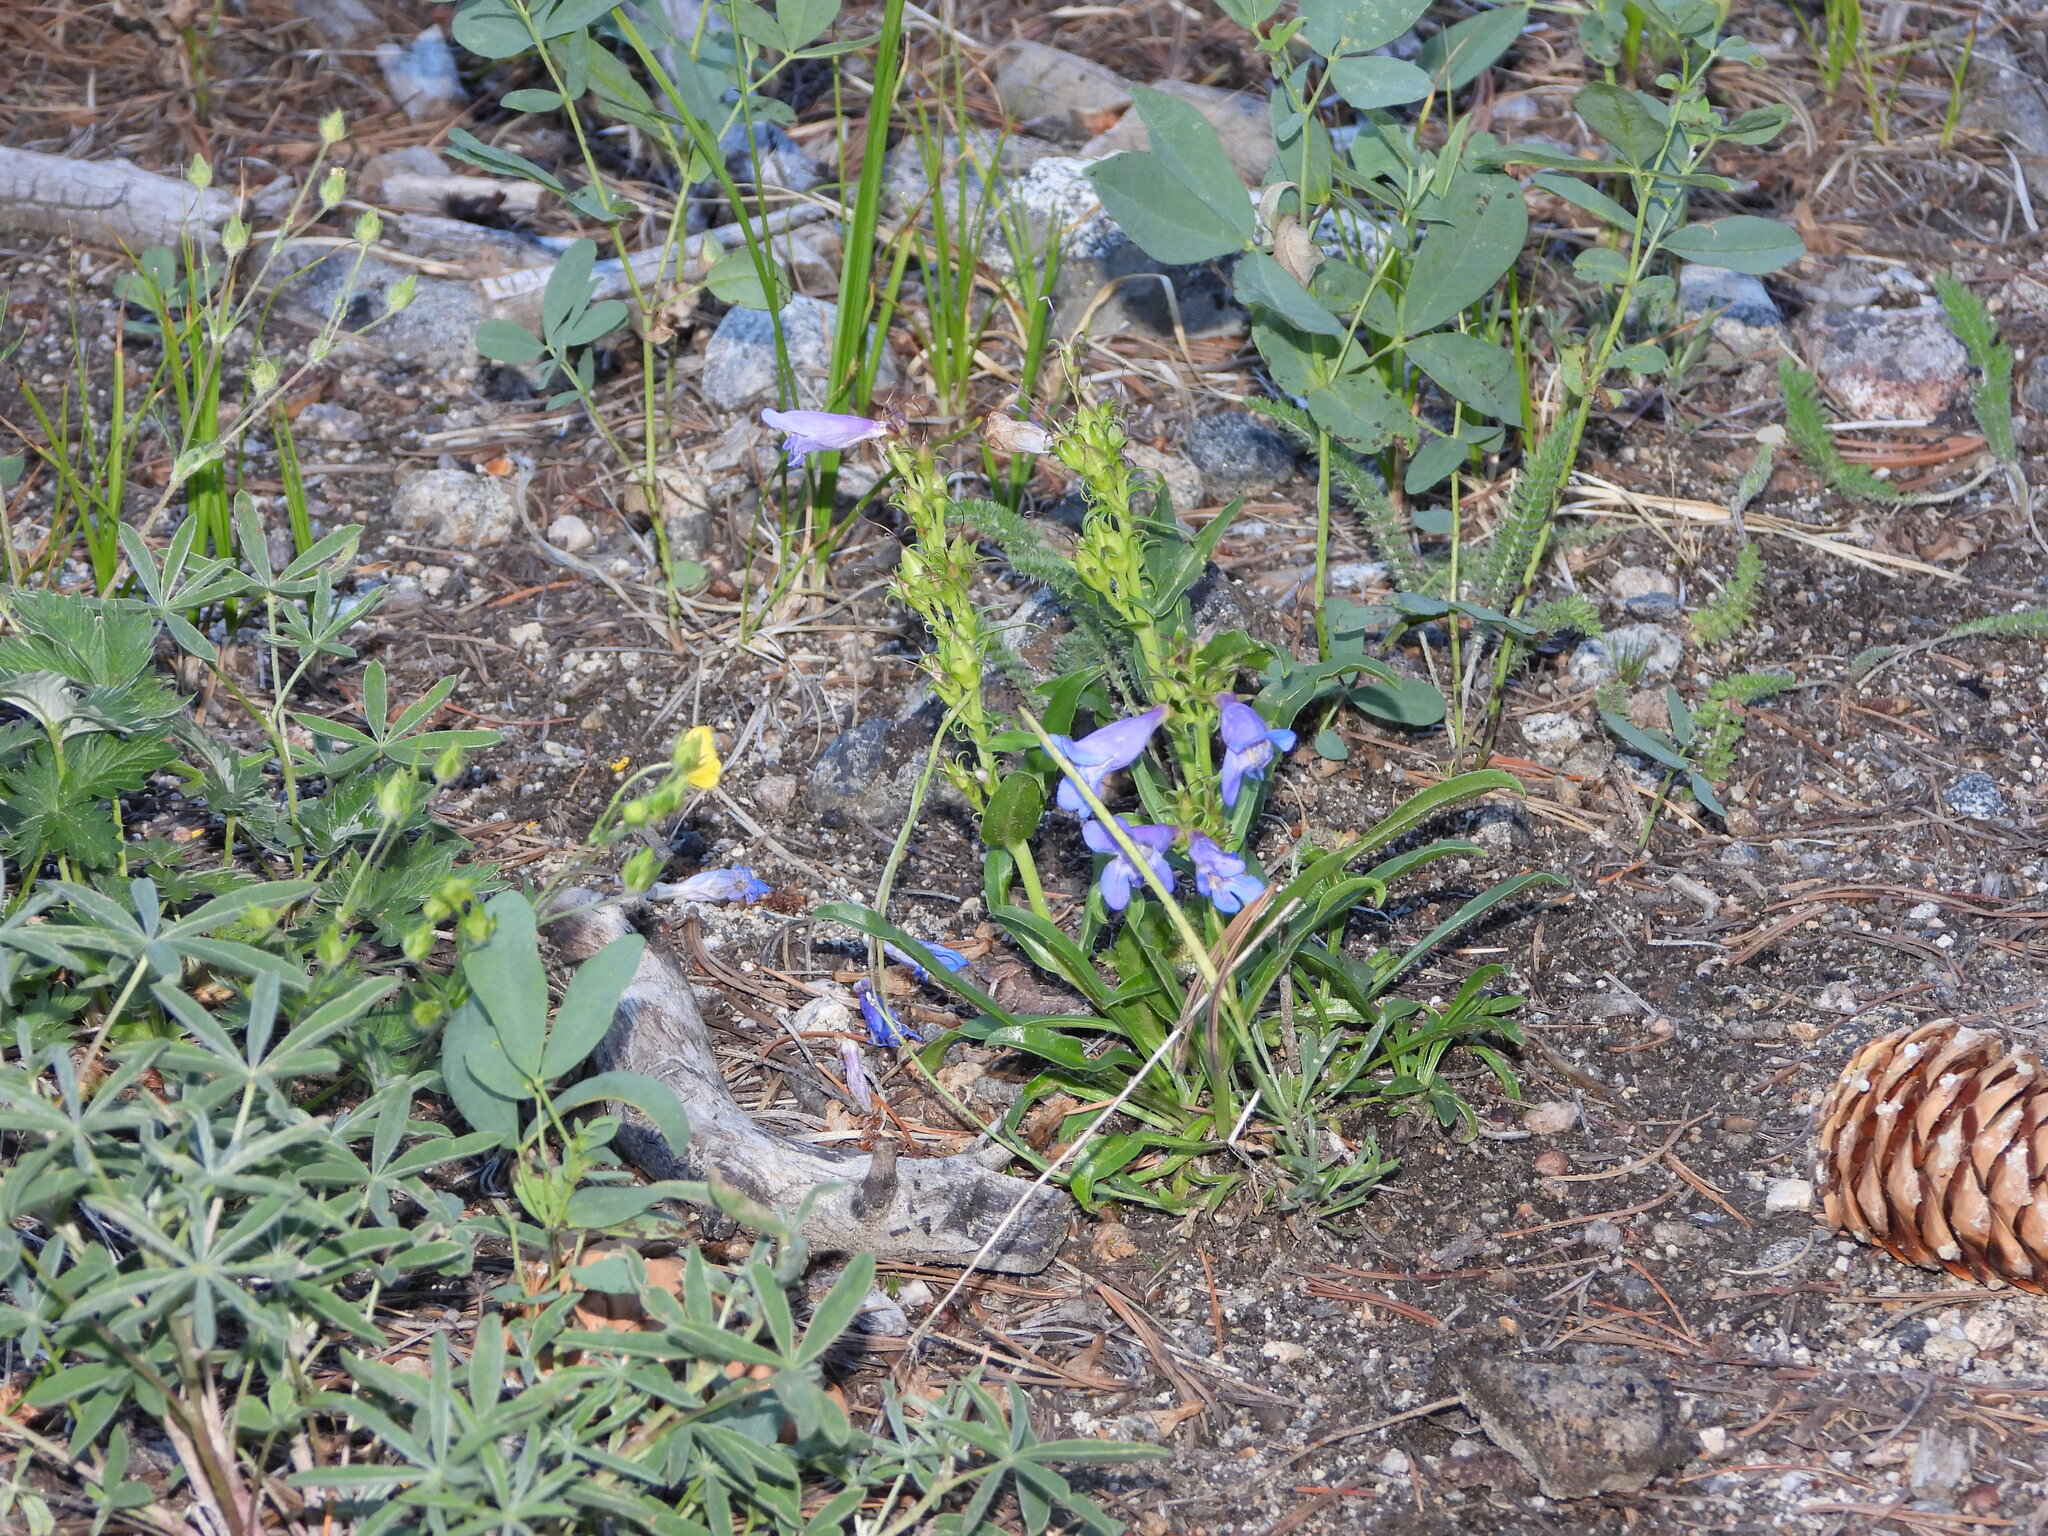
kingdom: Plantae
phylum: Tracheophyta
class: Magnoliopsida
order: Lamiales
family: Plantaginaceae
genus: Penstemon
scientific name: Penstemon glaber
